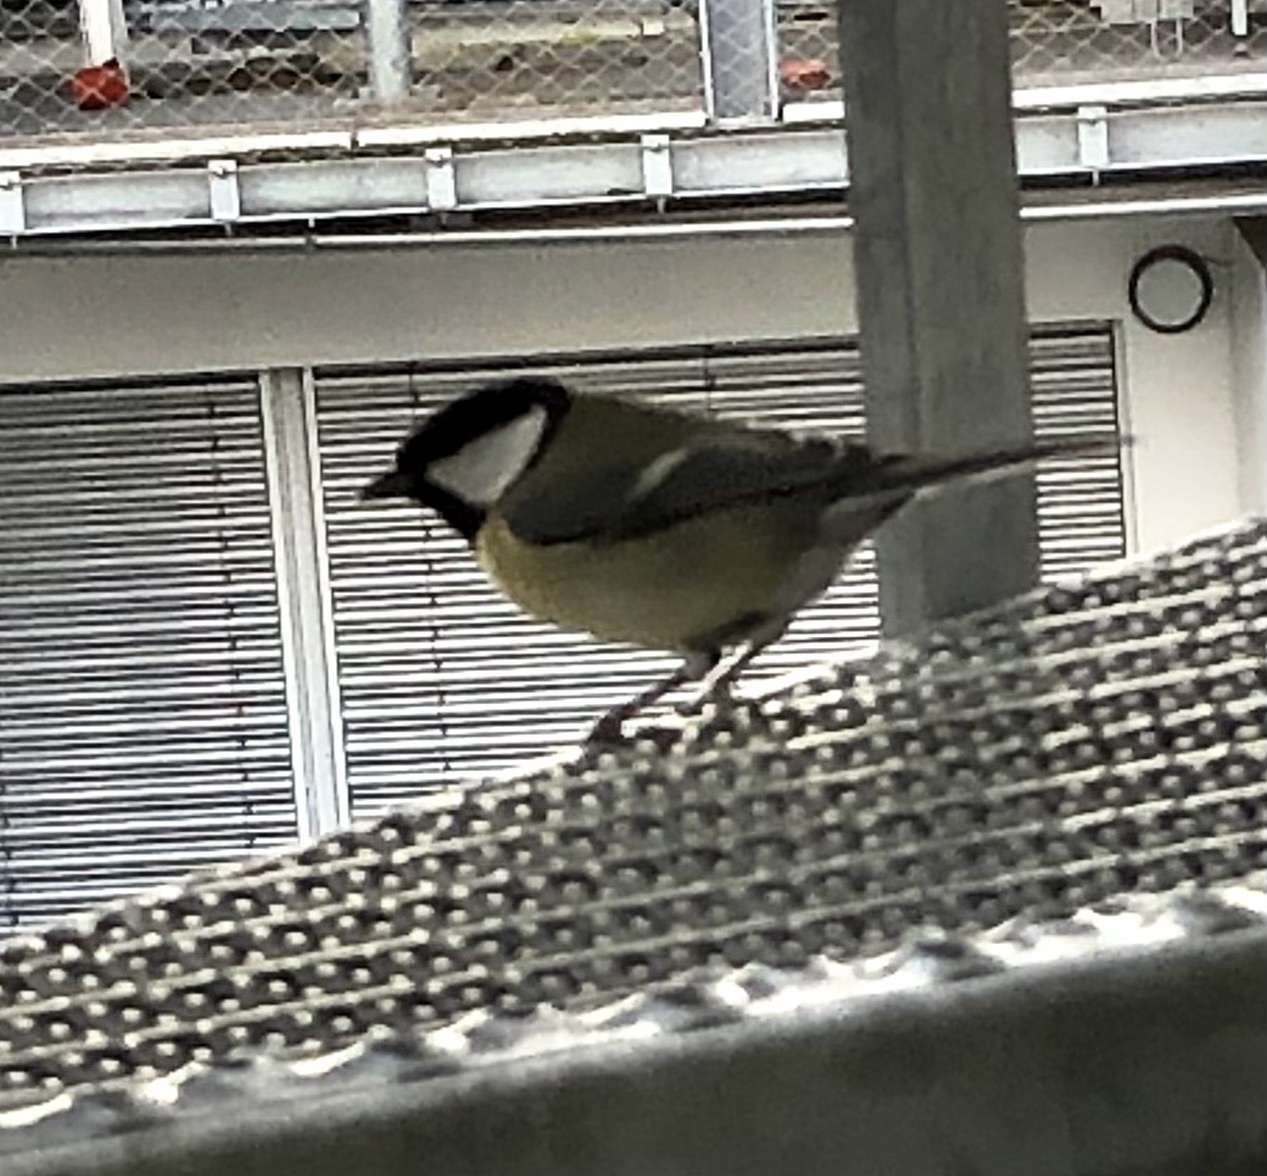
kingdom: Animalia
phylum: Chordata
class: Aves
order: Passeriformes
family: Paridae
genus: Parus
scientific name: Parus major
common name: Great tit
